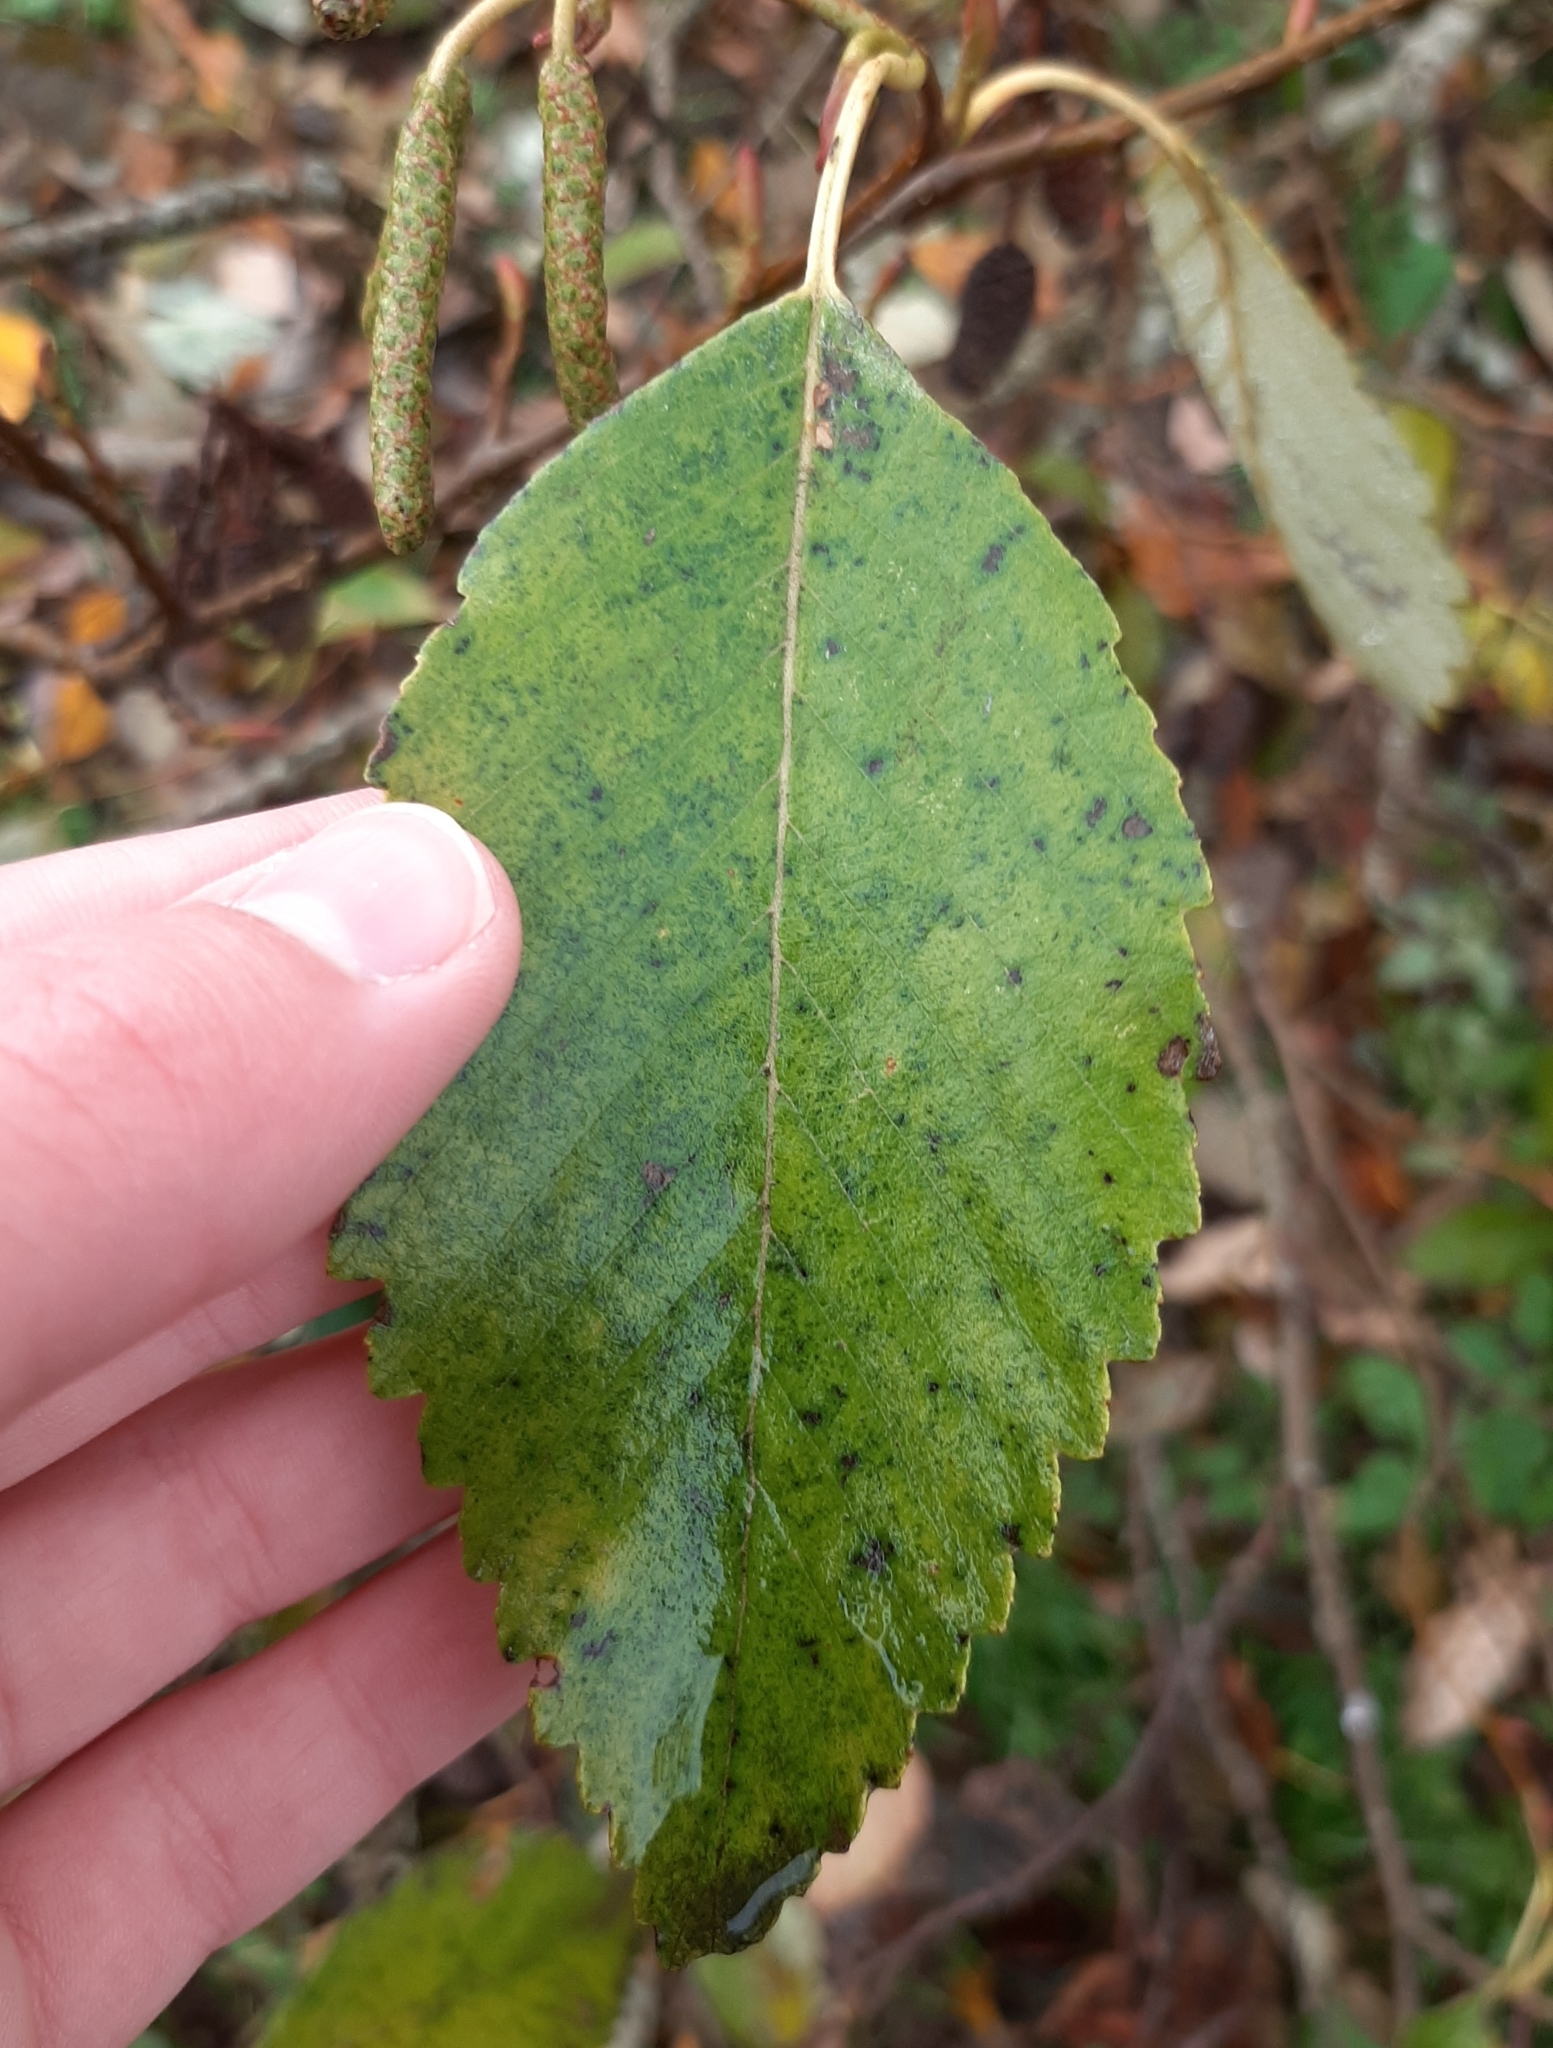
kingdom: Plantae
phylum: Tracheophyta
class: Magnoliopsida
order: Fagales
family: Betulaceae
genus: Alnus
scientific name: Alnus rubra
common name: Red alder
